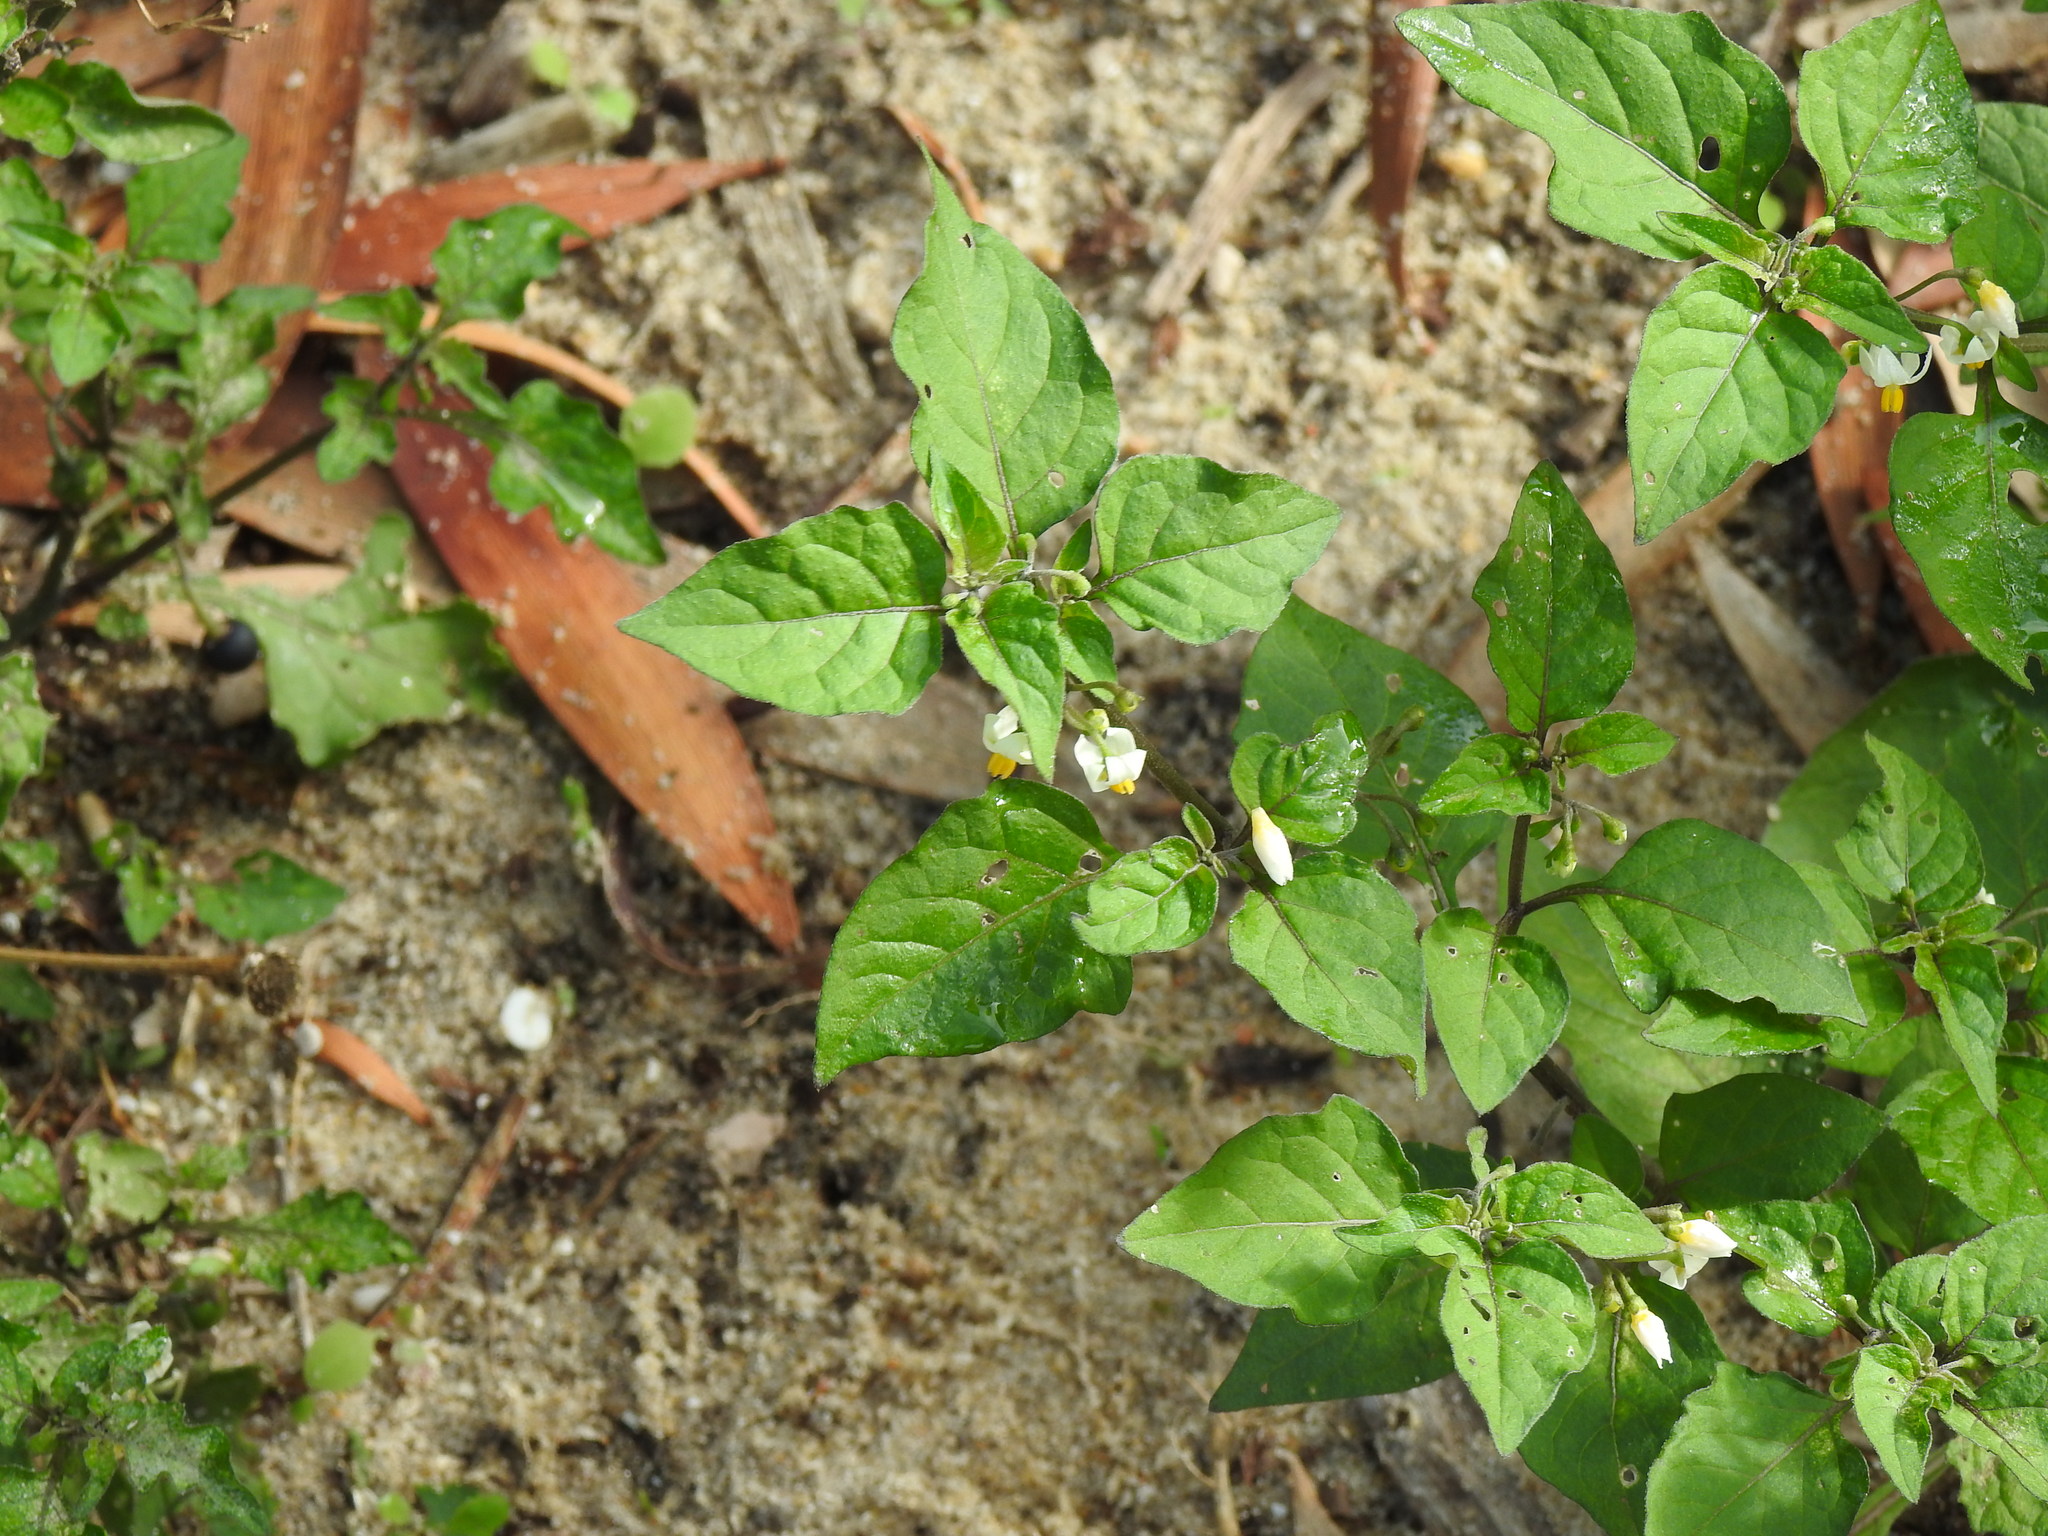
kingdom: Plantae
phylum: Tracheophyta
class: Magnoliopsida
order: Solanales
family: Solanaceae
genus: Solanum
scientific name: Solanum nigrum
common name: Black nightshade
